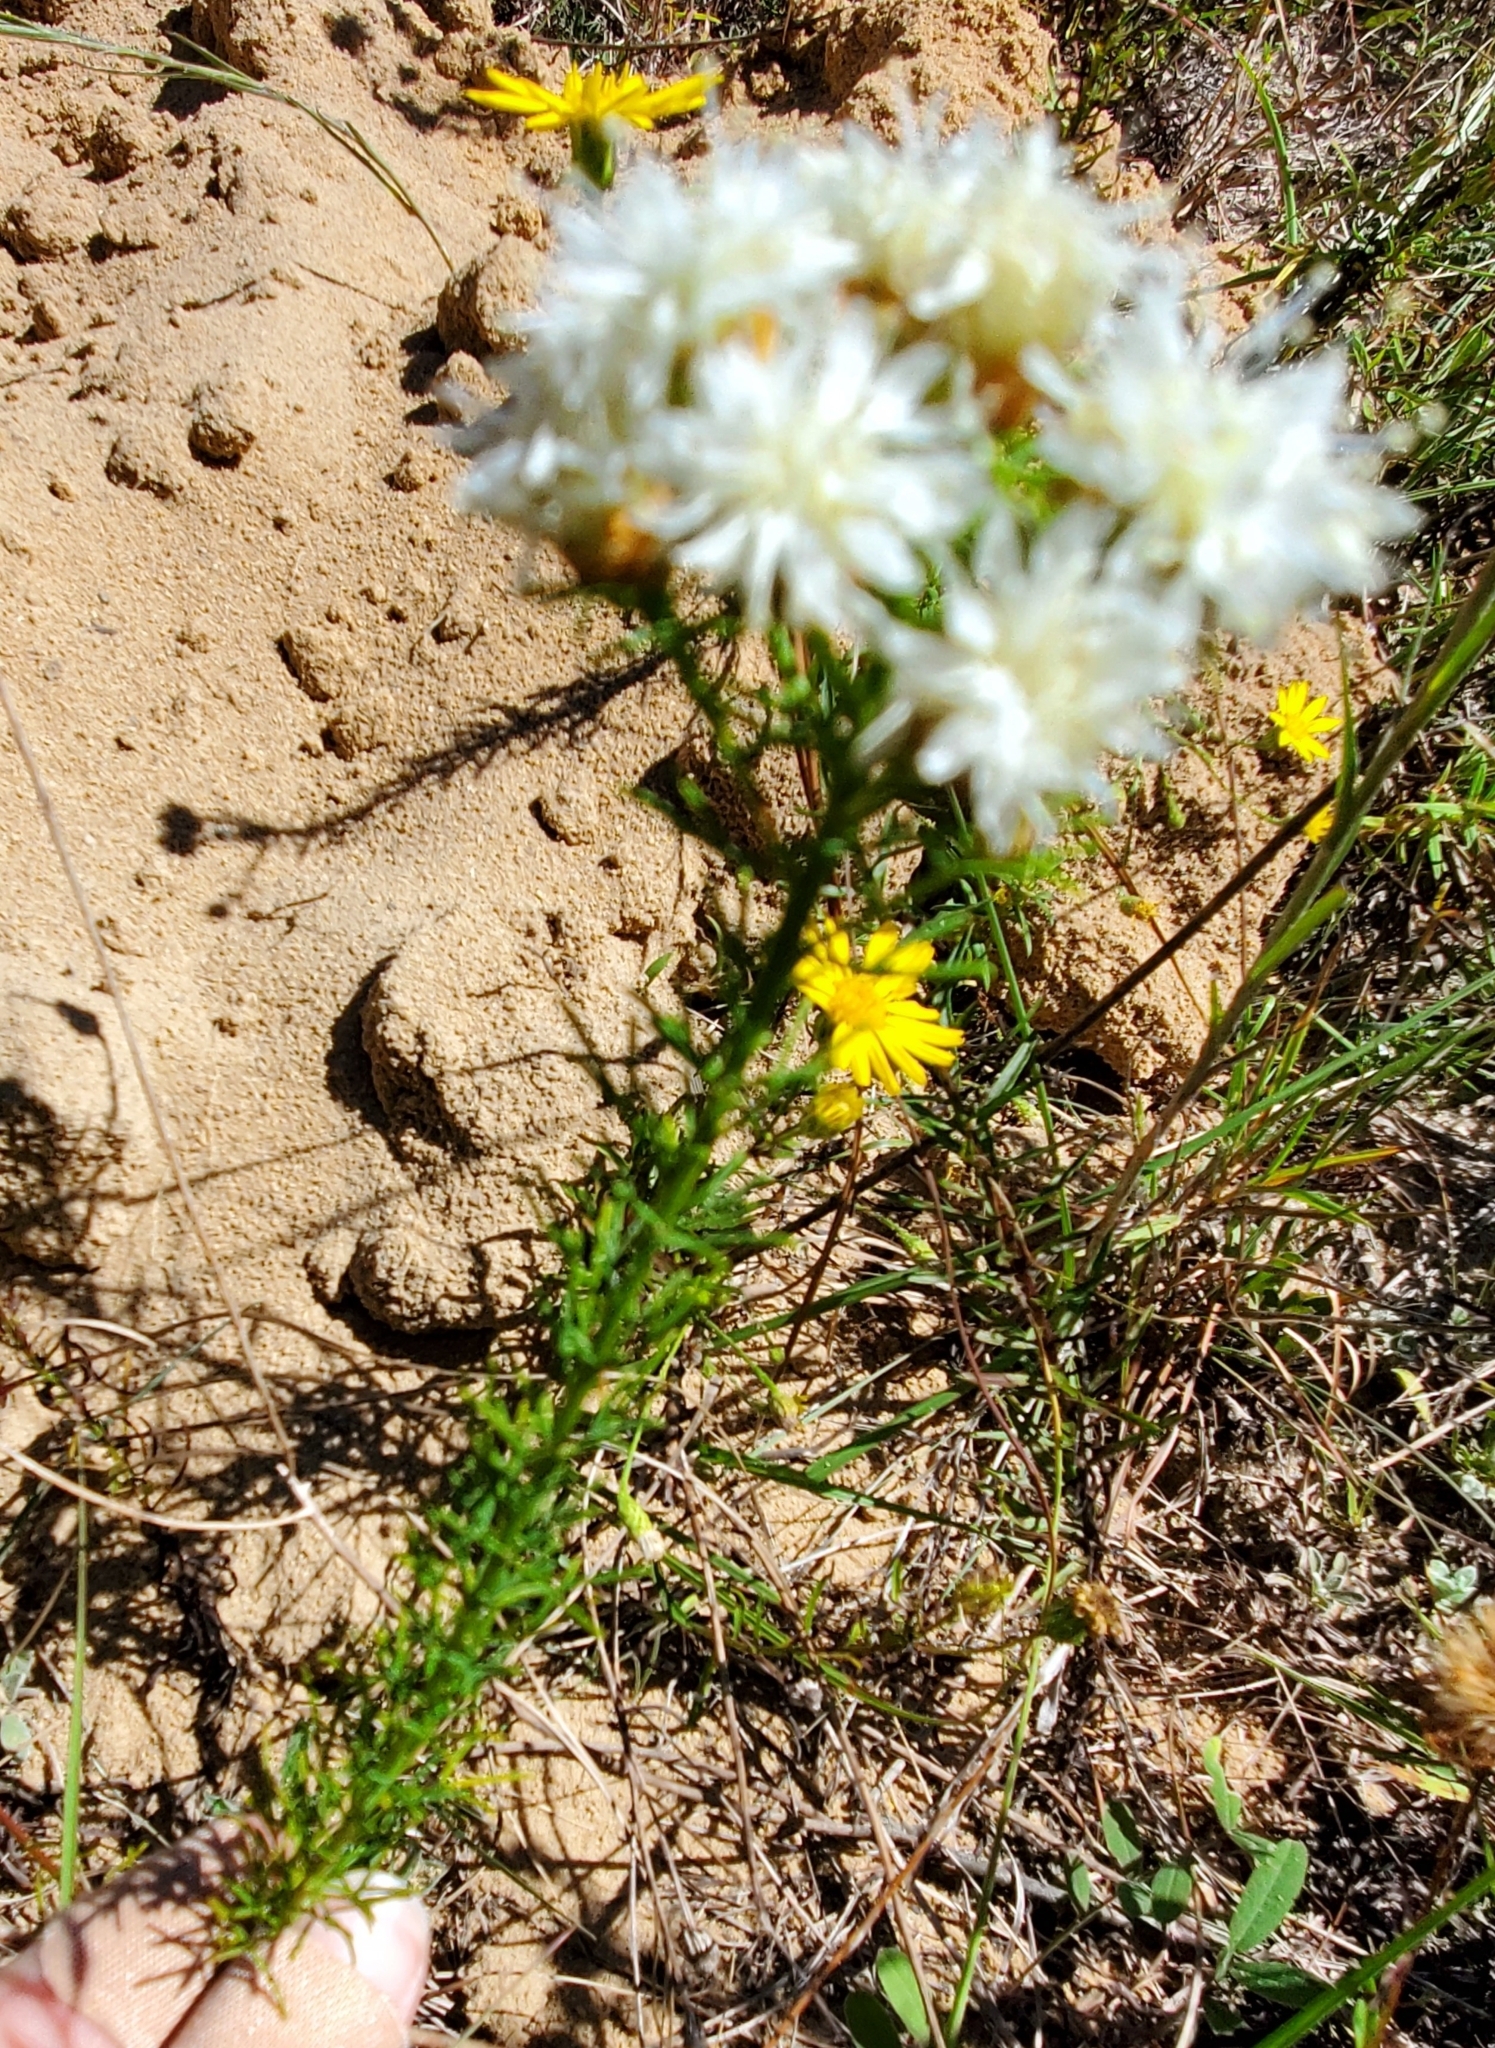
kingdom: Plantae
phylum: Tracheophyta
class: Magnoliopsida
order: Fabales
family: Fabaceae
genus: Dalea
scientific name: Dalea pinnata
